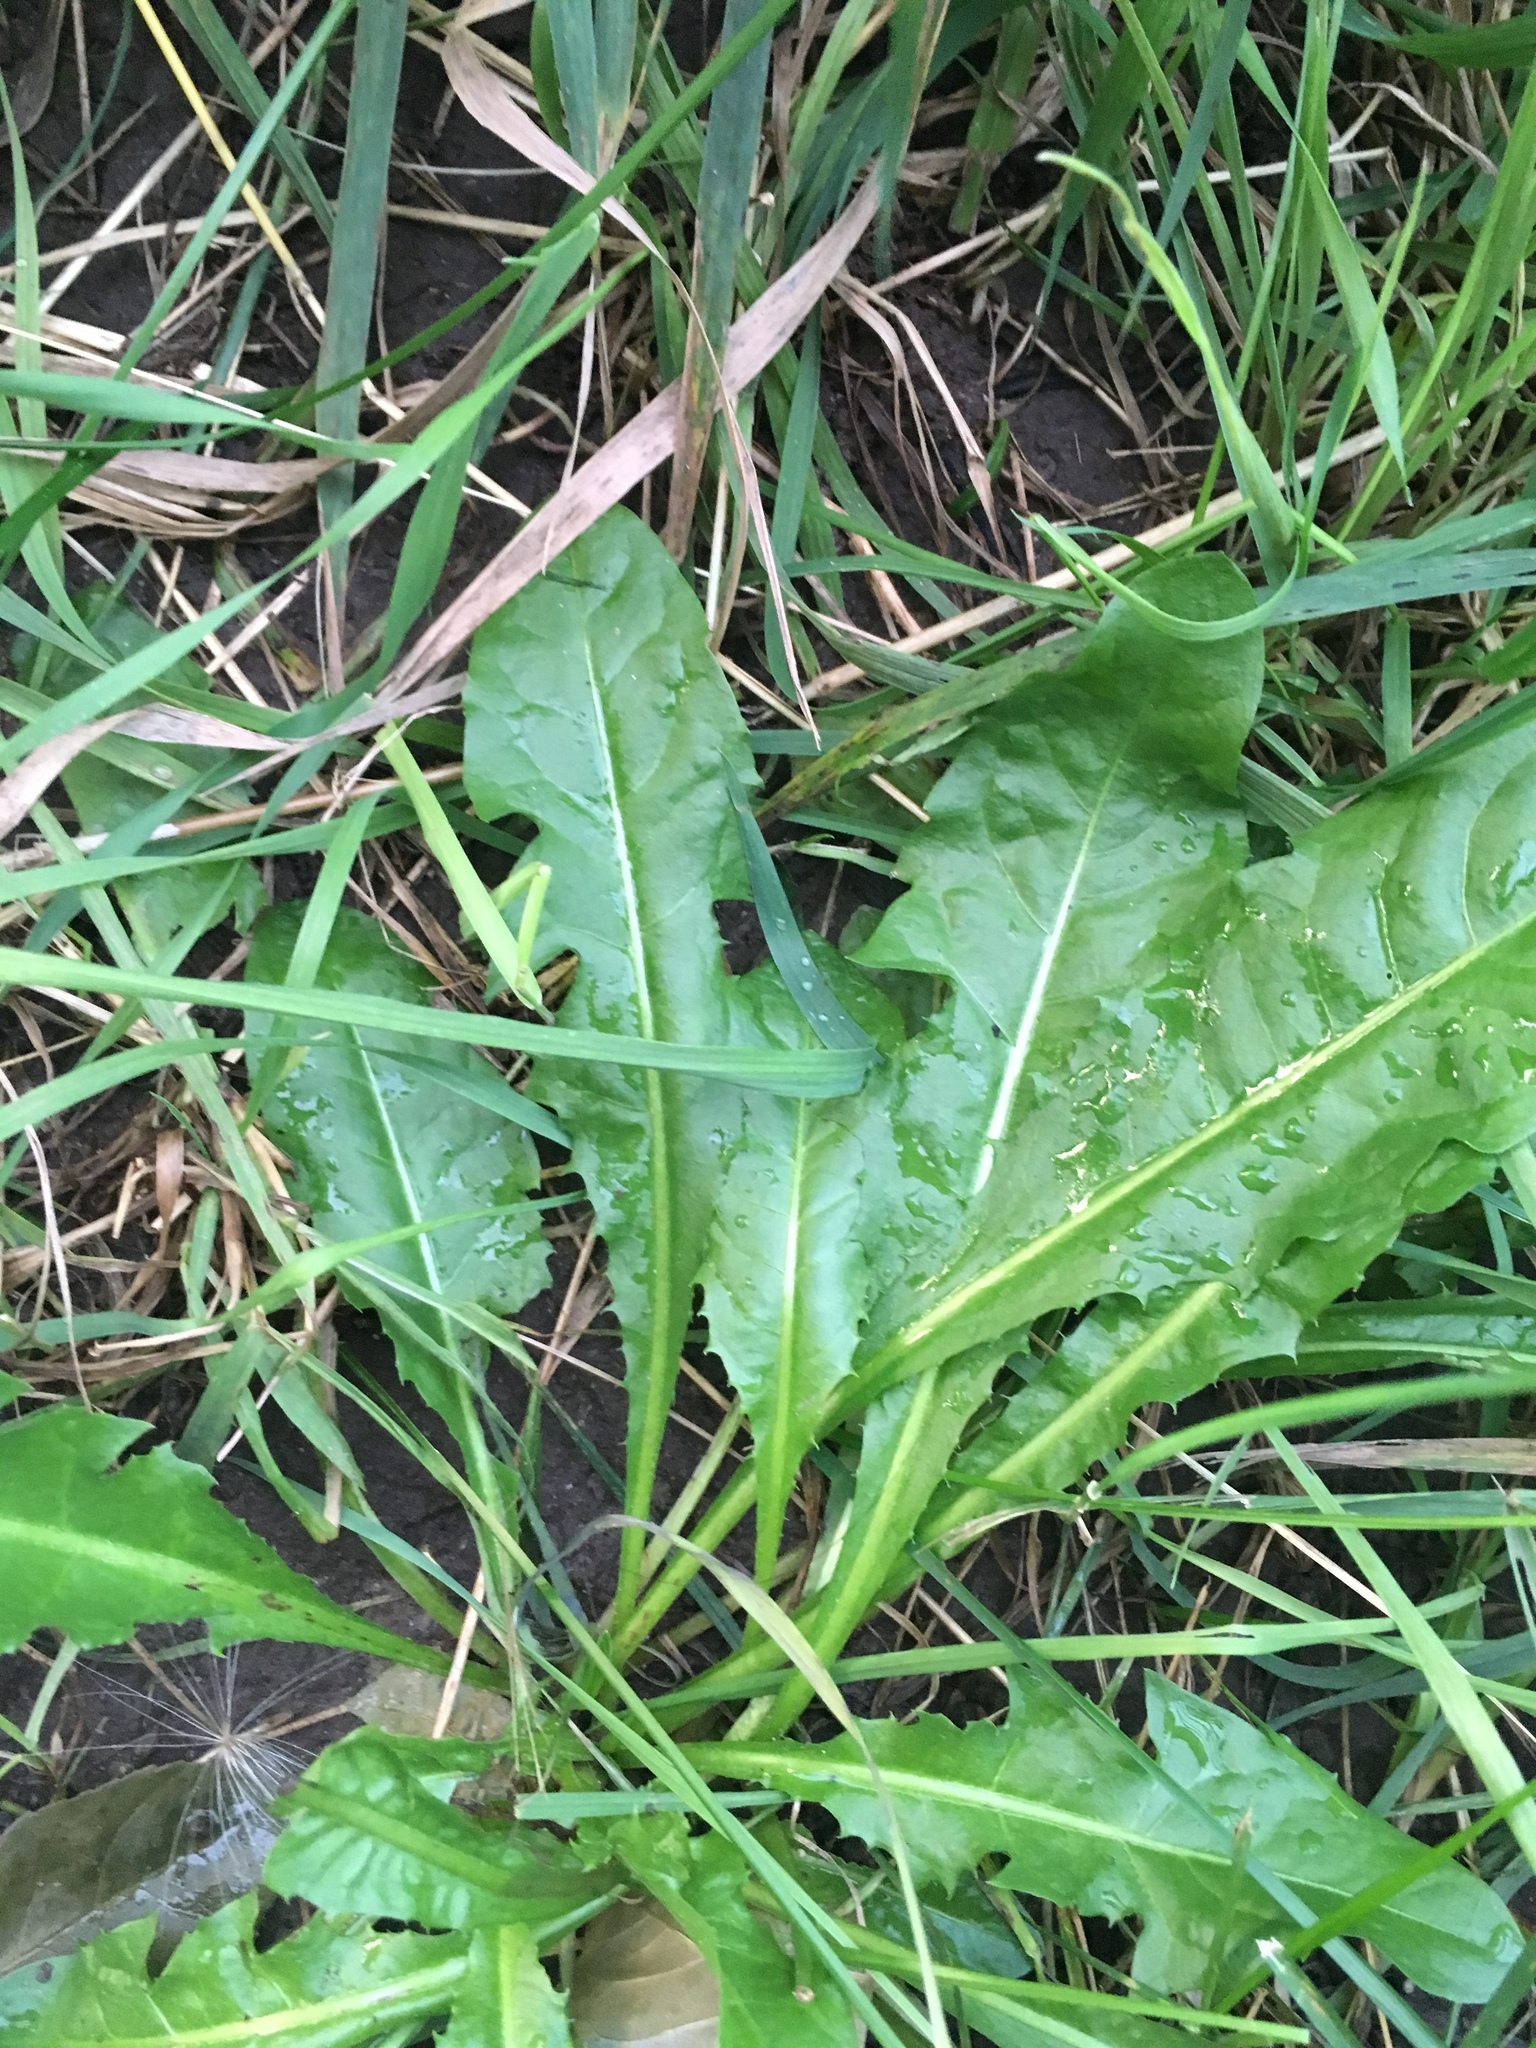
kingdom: Plantae
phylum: Tracheophyta
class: Magnoliopsida
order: Asterales
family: Asteraceae
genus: Taraxacum
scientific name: Taraxacum officinale
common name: Common dandelion
